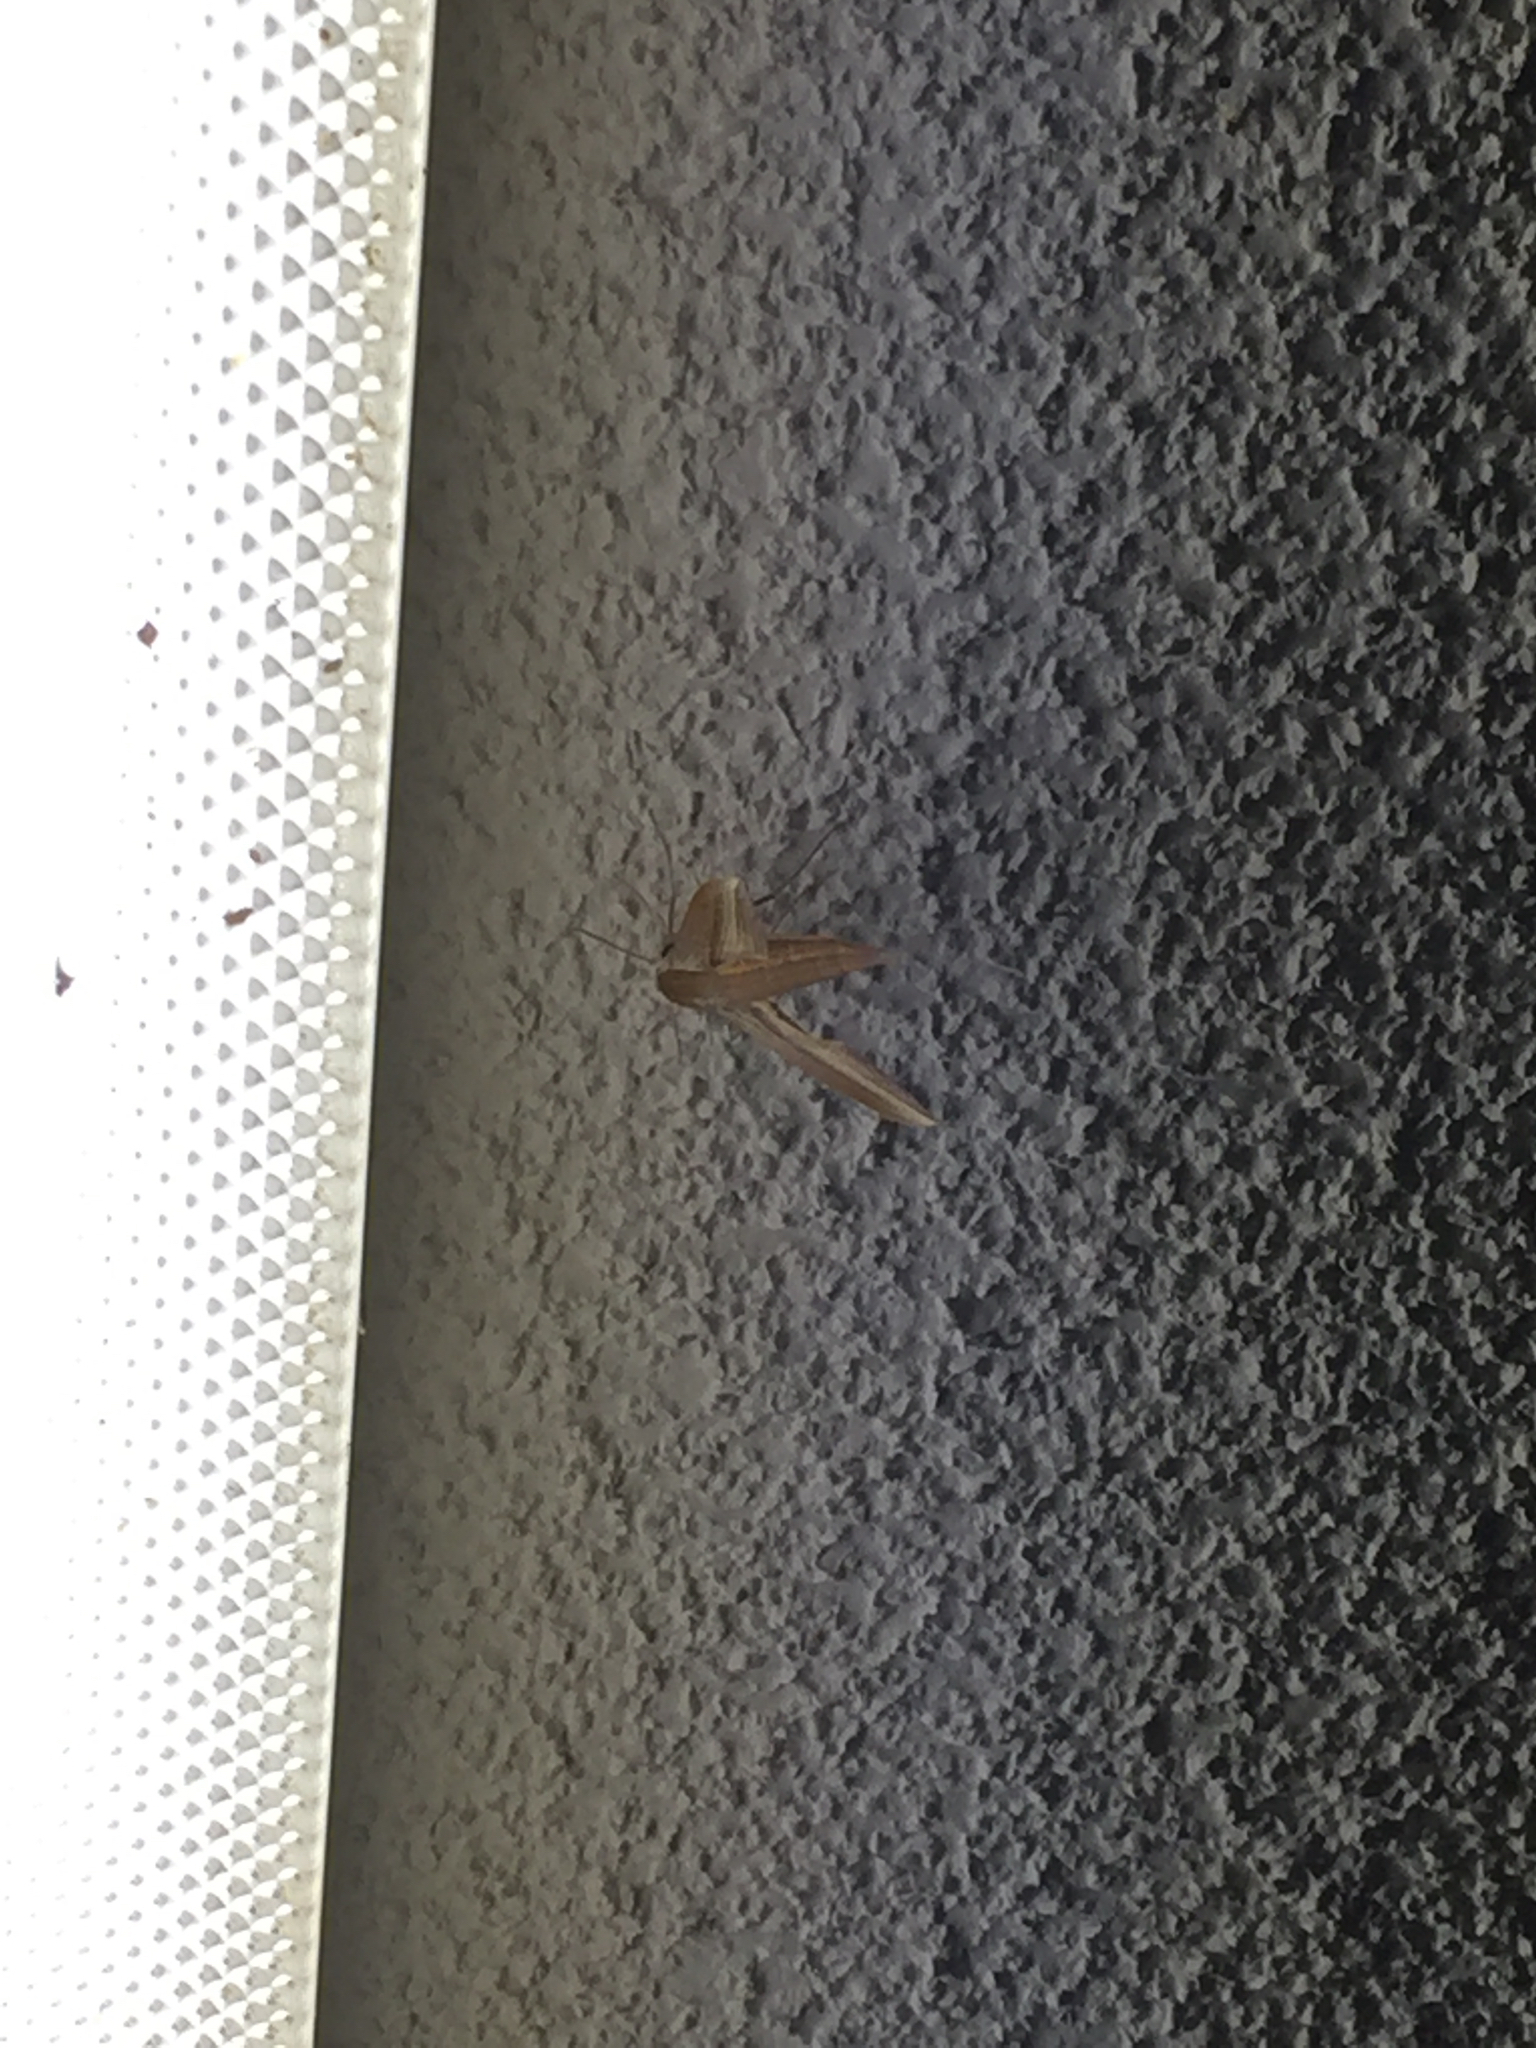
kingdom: Animalia
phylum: Arthropoda
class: Insecta
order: Lepidoptera
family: Sphingidae
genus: Xylophanes
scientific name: Xylophanes tersa
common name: Tersa sphinx
